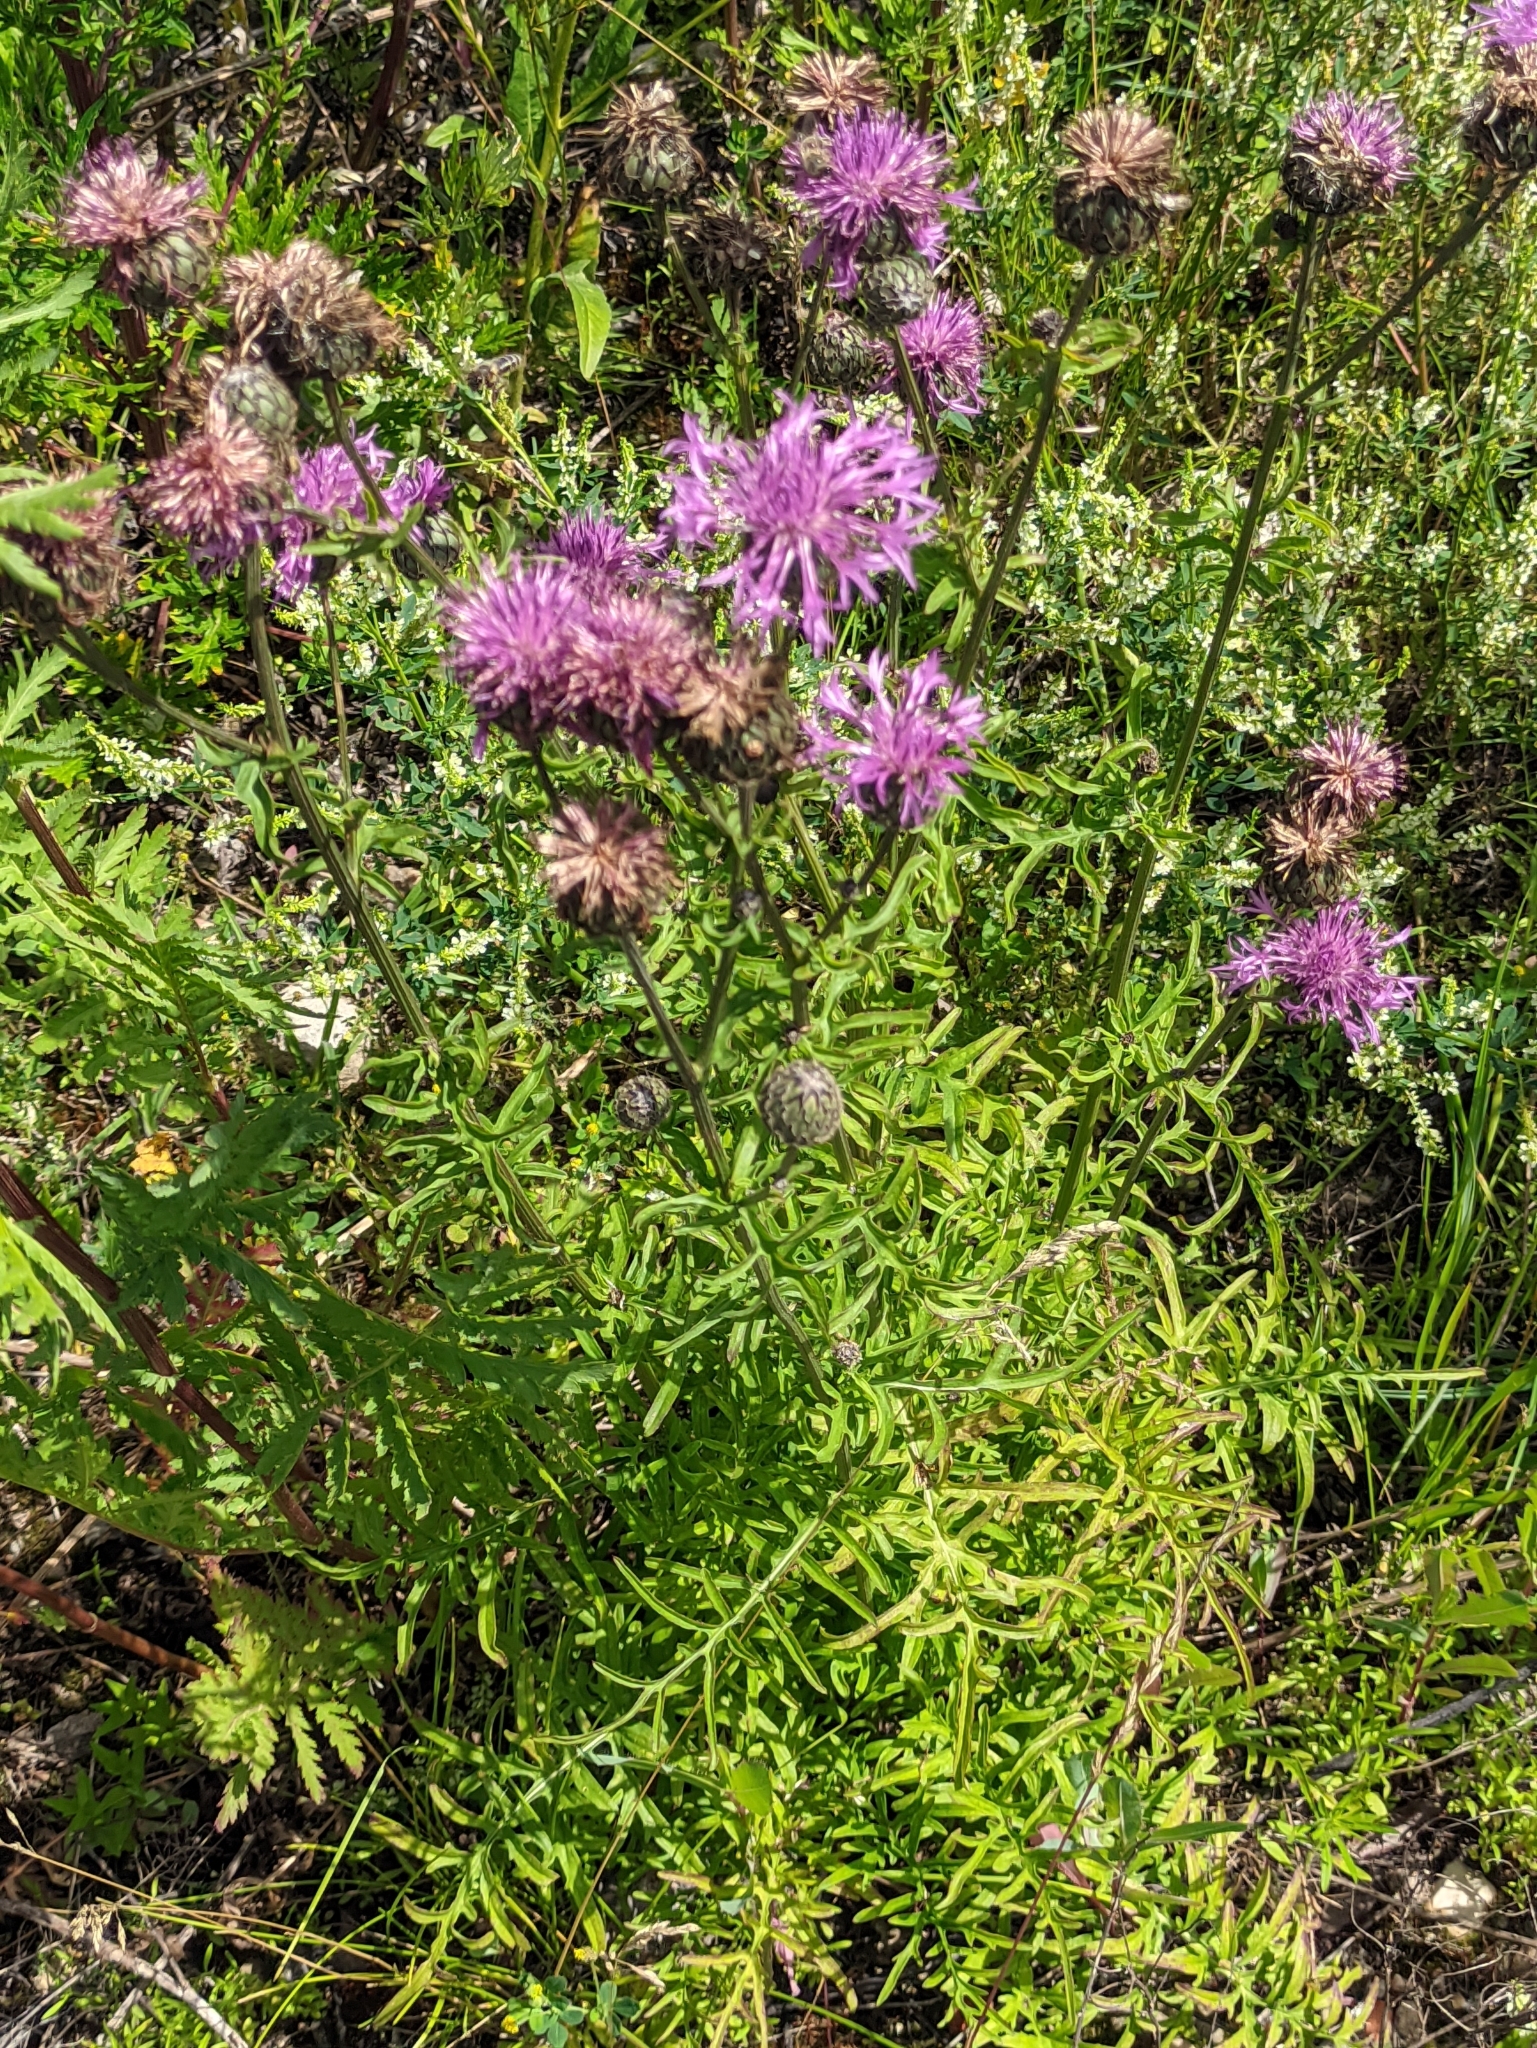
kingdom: Plantae
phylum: Tracheophyta
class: Magnoliopsida
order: Asterales
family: Asteraceae
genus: Centaurea
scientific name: Centaurea scabiosa
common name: Greater knapweed
